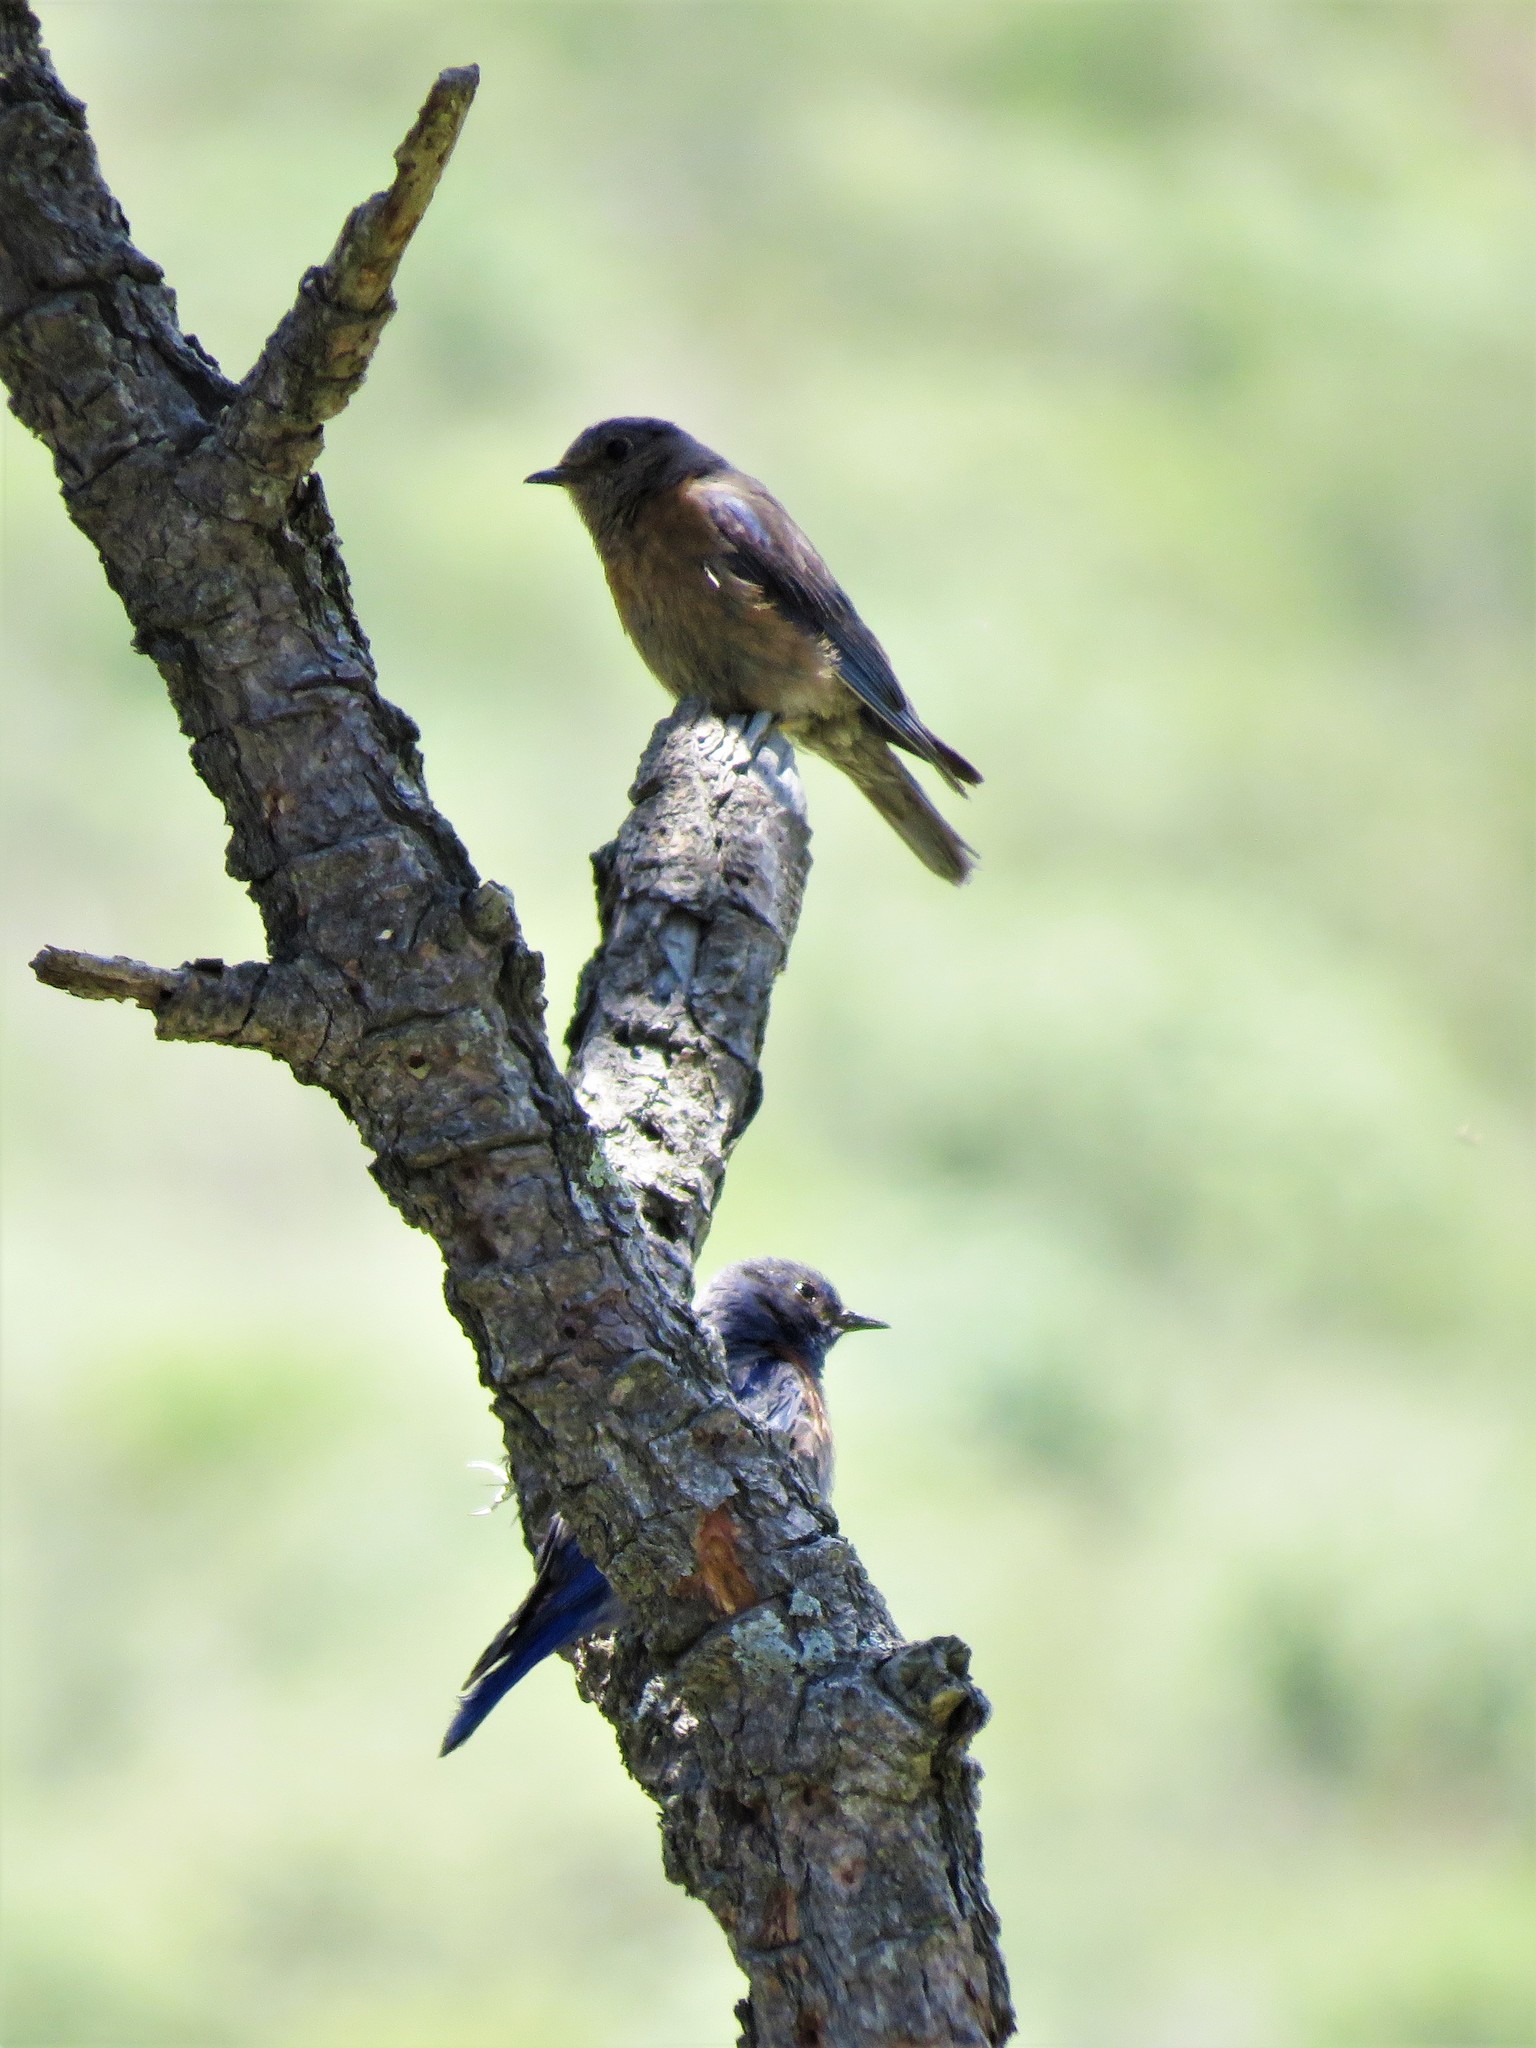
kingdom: Animalia
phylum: Chordata
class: Aves
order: Passeriformes
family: Turdidae
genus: Sialia
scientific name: Sialia mexicana
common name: Western bluebird
